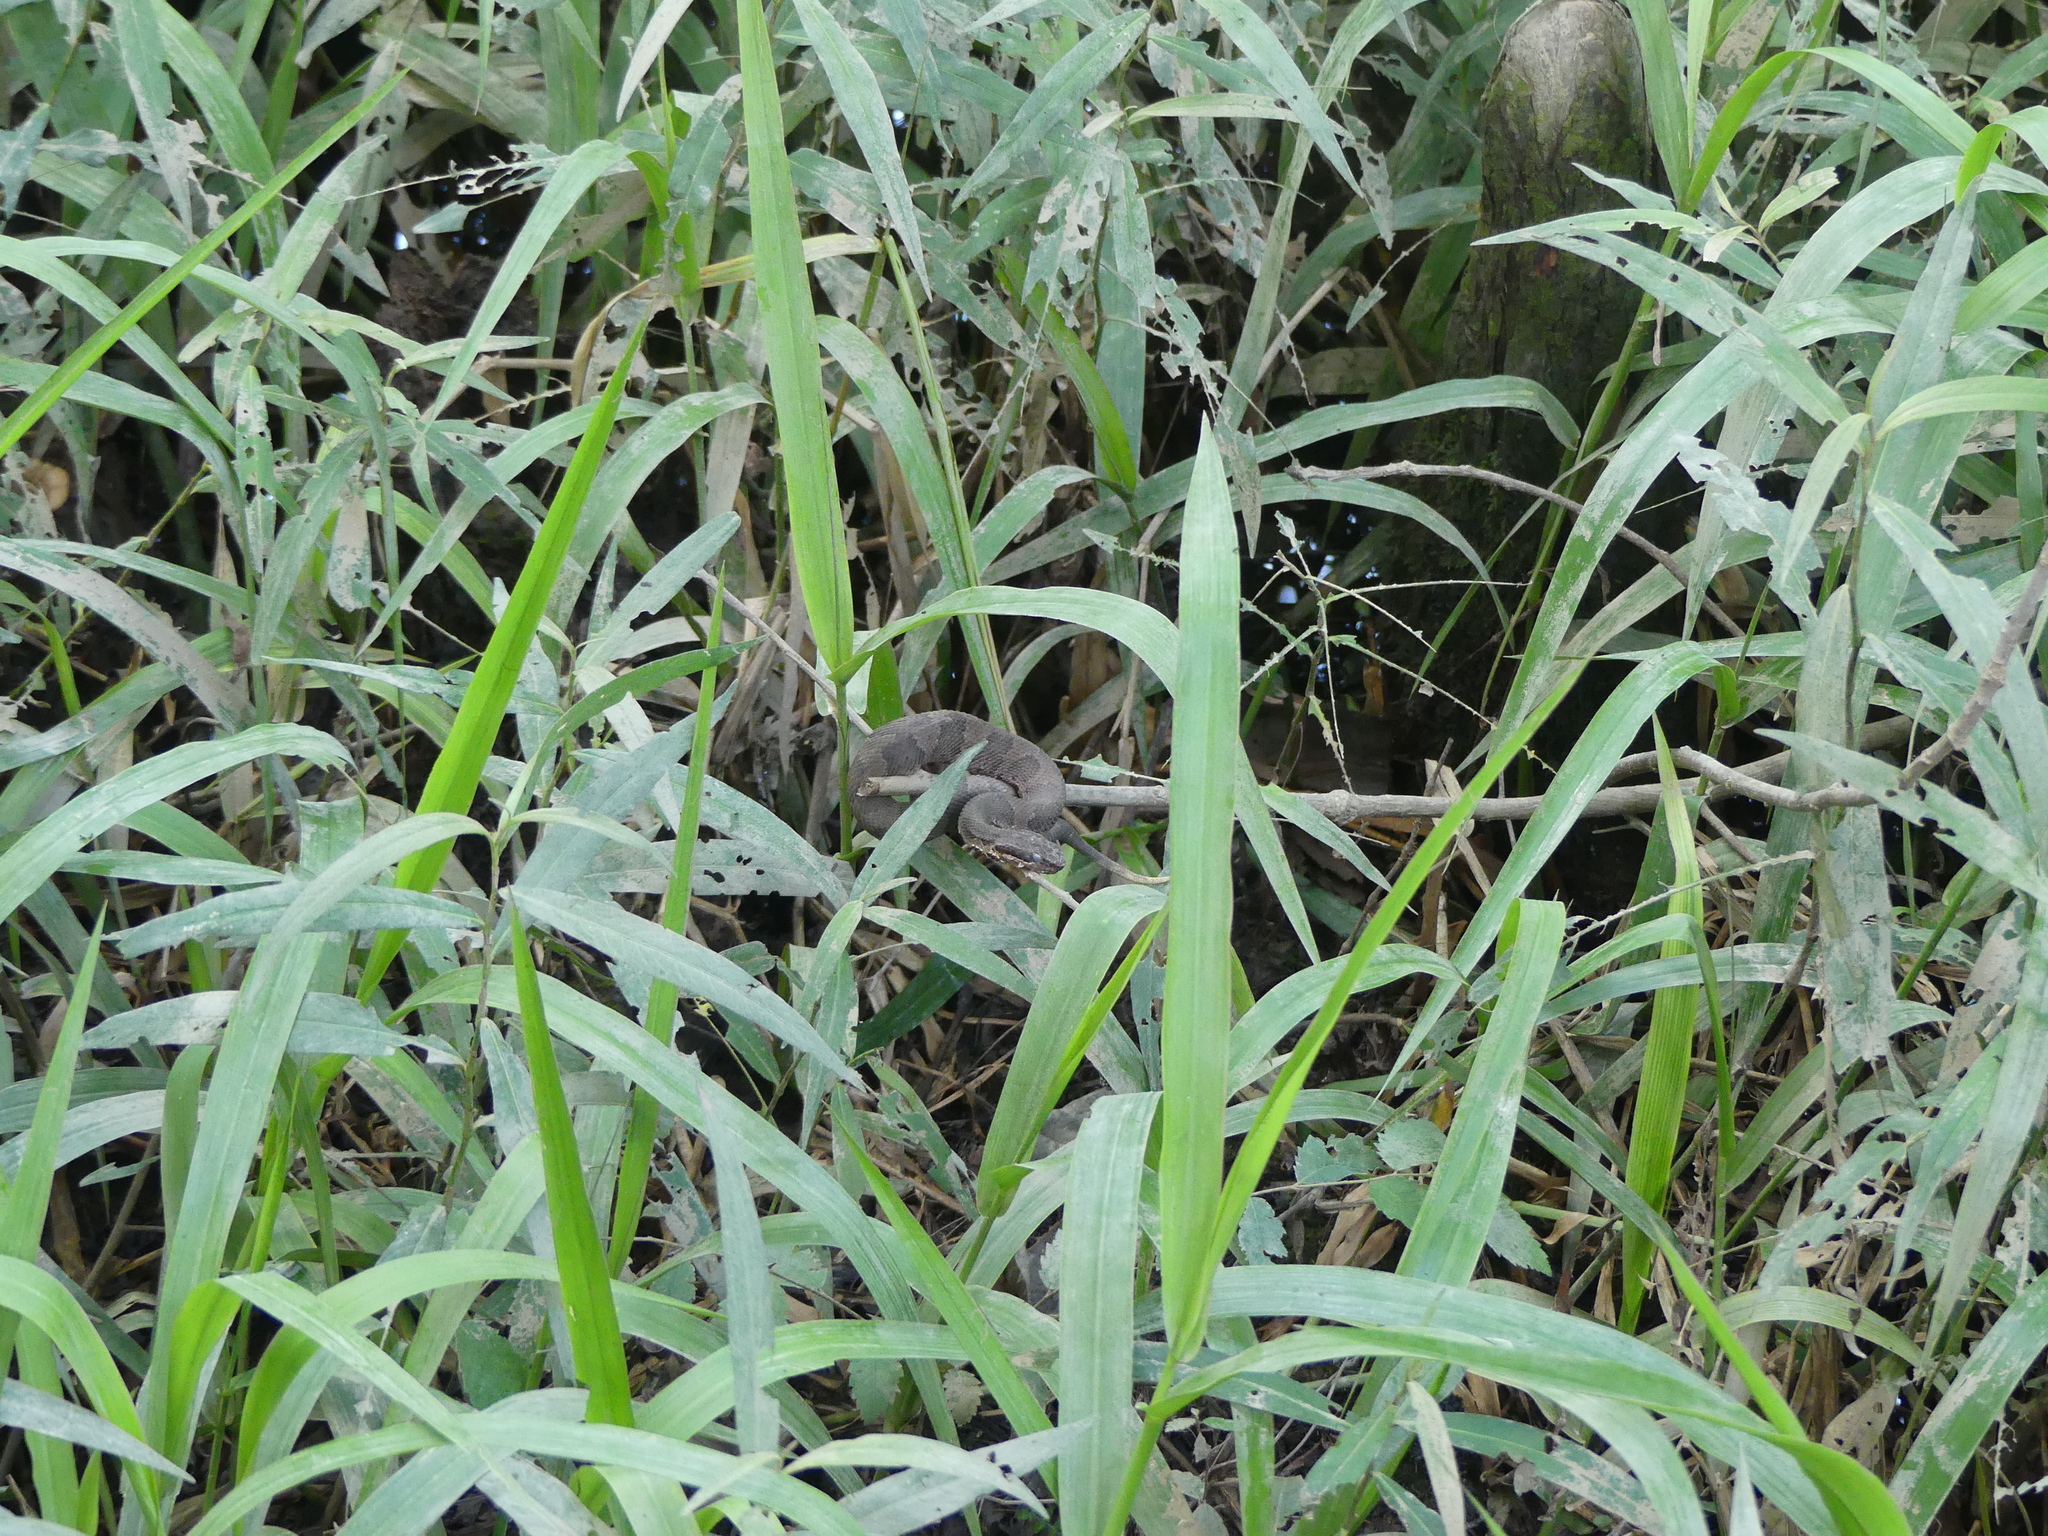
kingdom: Animalia
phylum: Chordata
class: Squamata
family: Viperidae
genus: Agkistrodon
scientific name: Agkistrodon piscivorus
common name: Cottonmouth
